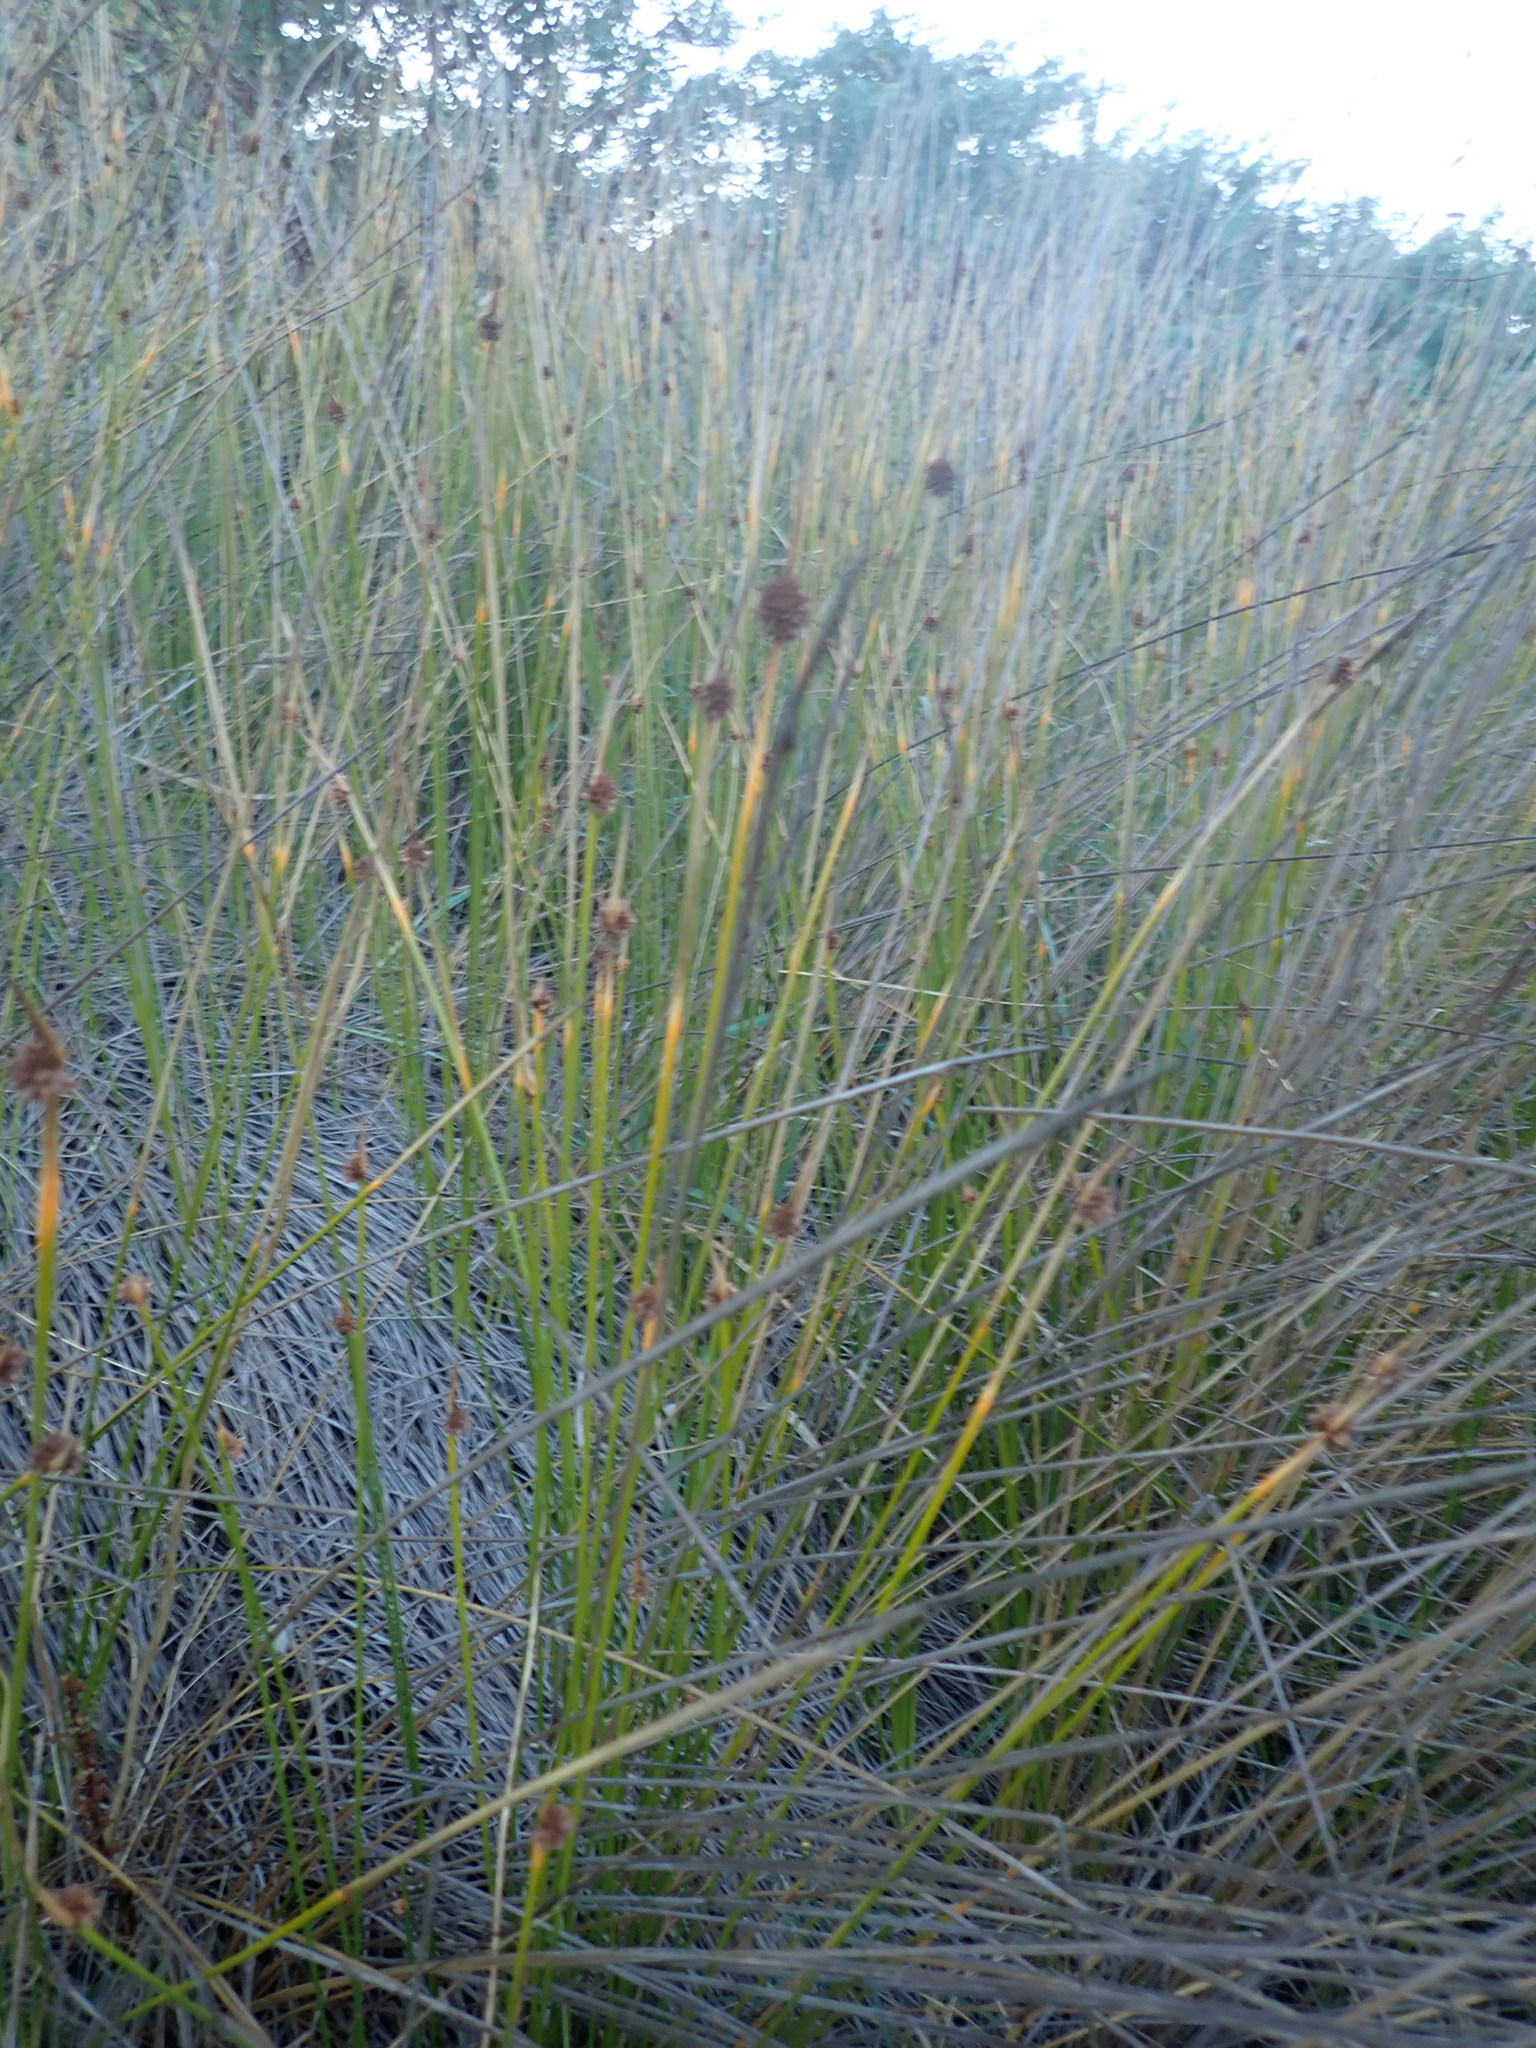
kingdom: Plantae
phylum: Tracheophyta
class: Liliopsida
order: Poales
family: Cyperaceae
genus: Ficinia
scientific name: Ficinia nodosa
